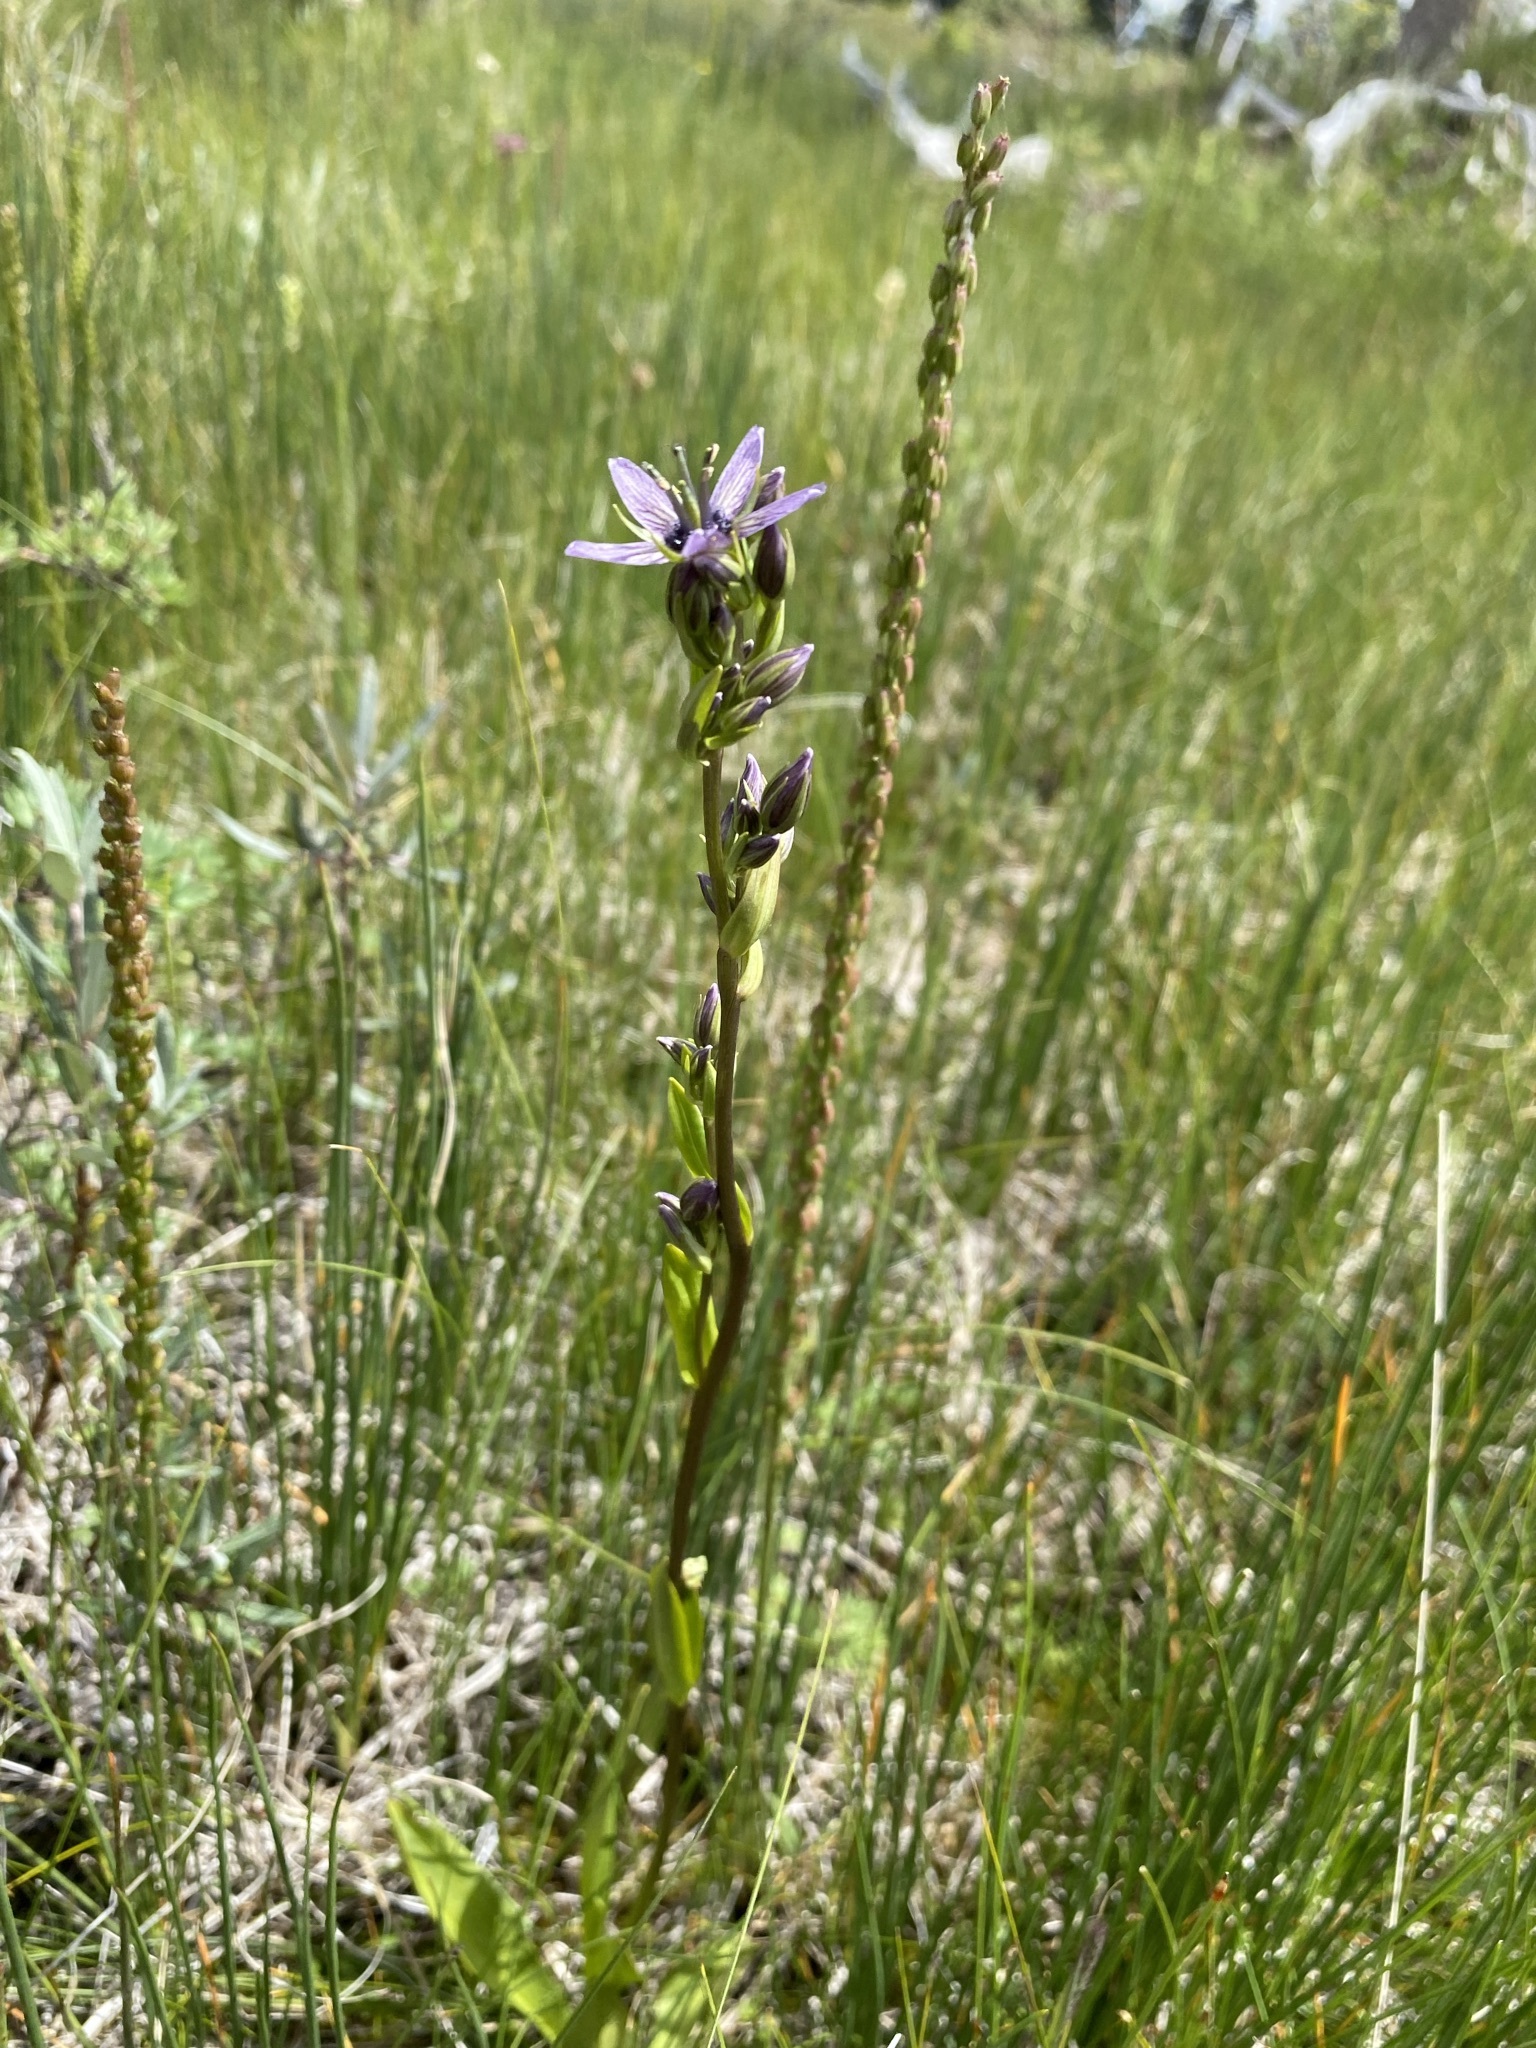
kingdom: Plantae
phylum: Tracheophyta
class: Magnoliopsida
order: Gentianales
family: Gentianaceae
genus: Swertia
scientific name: Swertia perennis
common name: Alpine bog swertia
